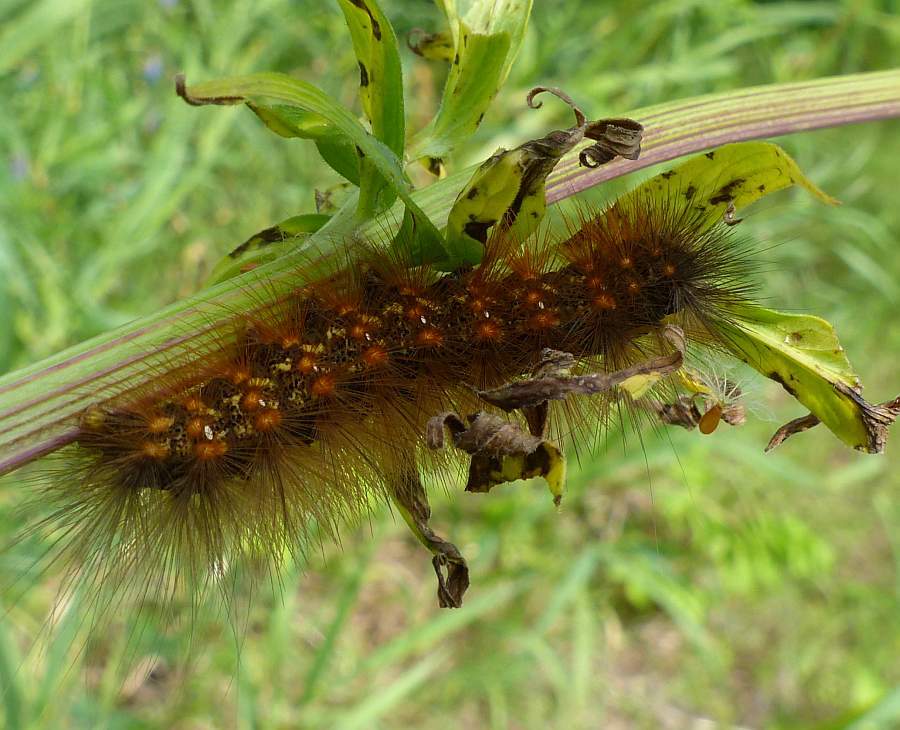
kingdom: Animalia
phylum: Arthropoda
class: Insecta
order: Lepidoptera
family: Erebidae
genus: Estigmene
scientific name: Estigmene acrea
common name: Salt marsh moth
